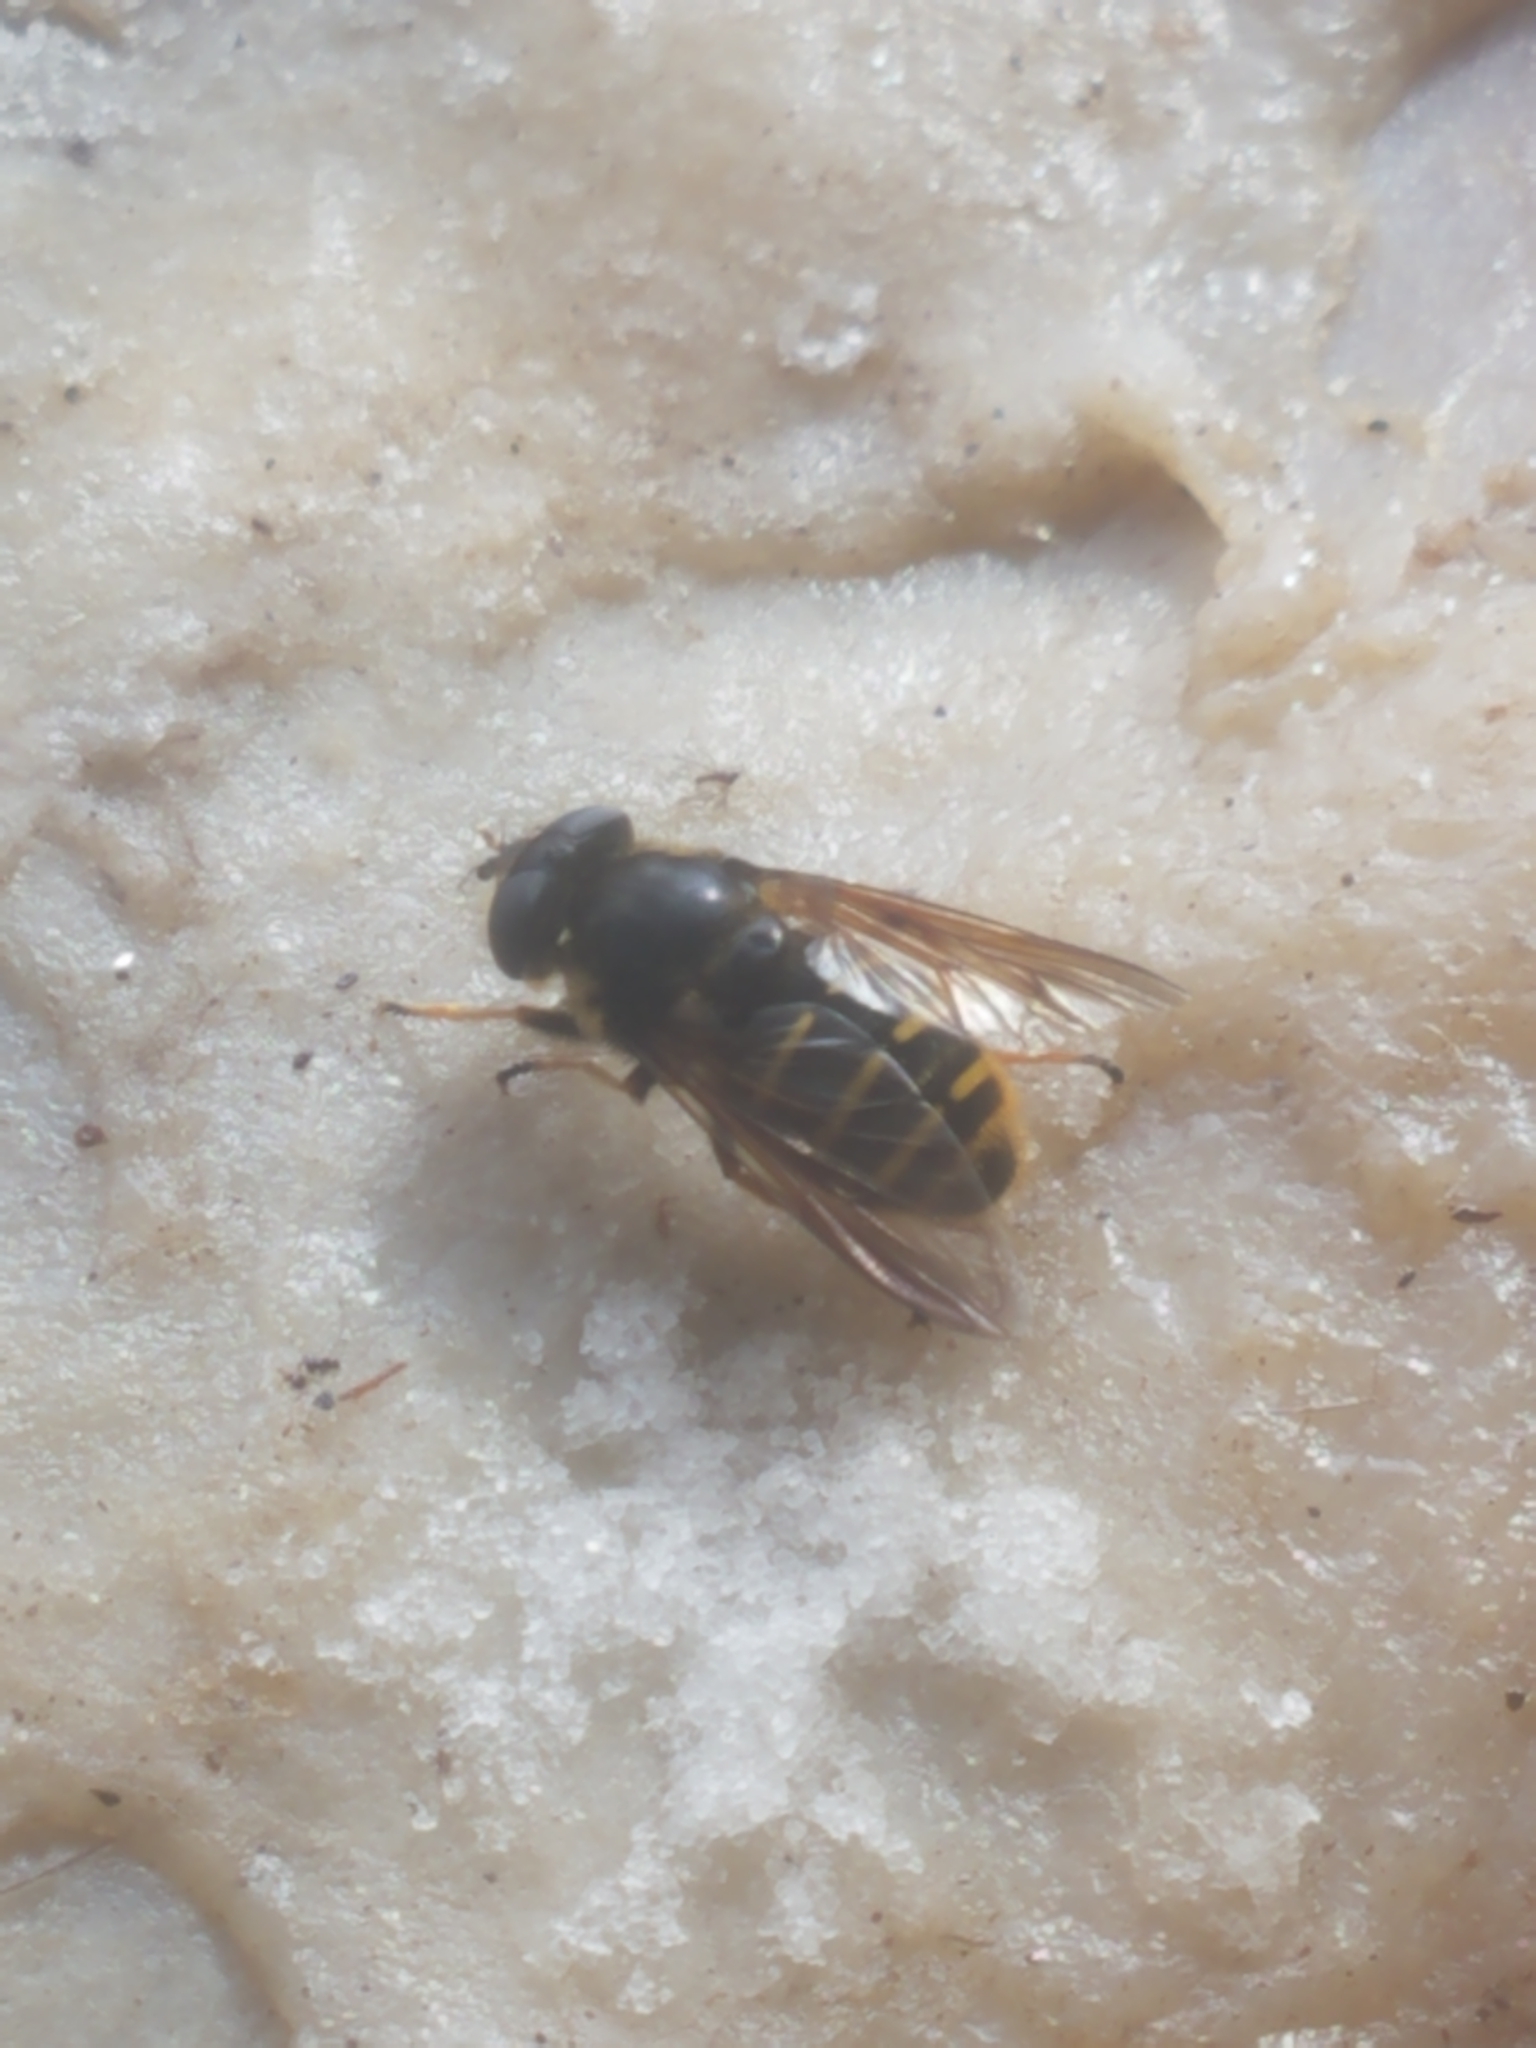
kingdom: Animalia
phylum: Arthropoda
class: Insecta
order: Diptera
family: Syrphidae
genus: Sericomyia
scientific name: Sericomyia chalcopyga
